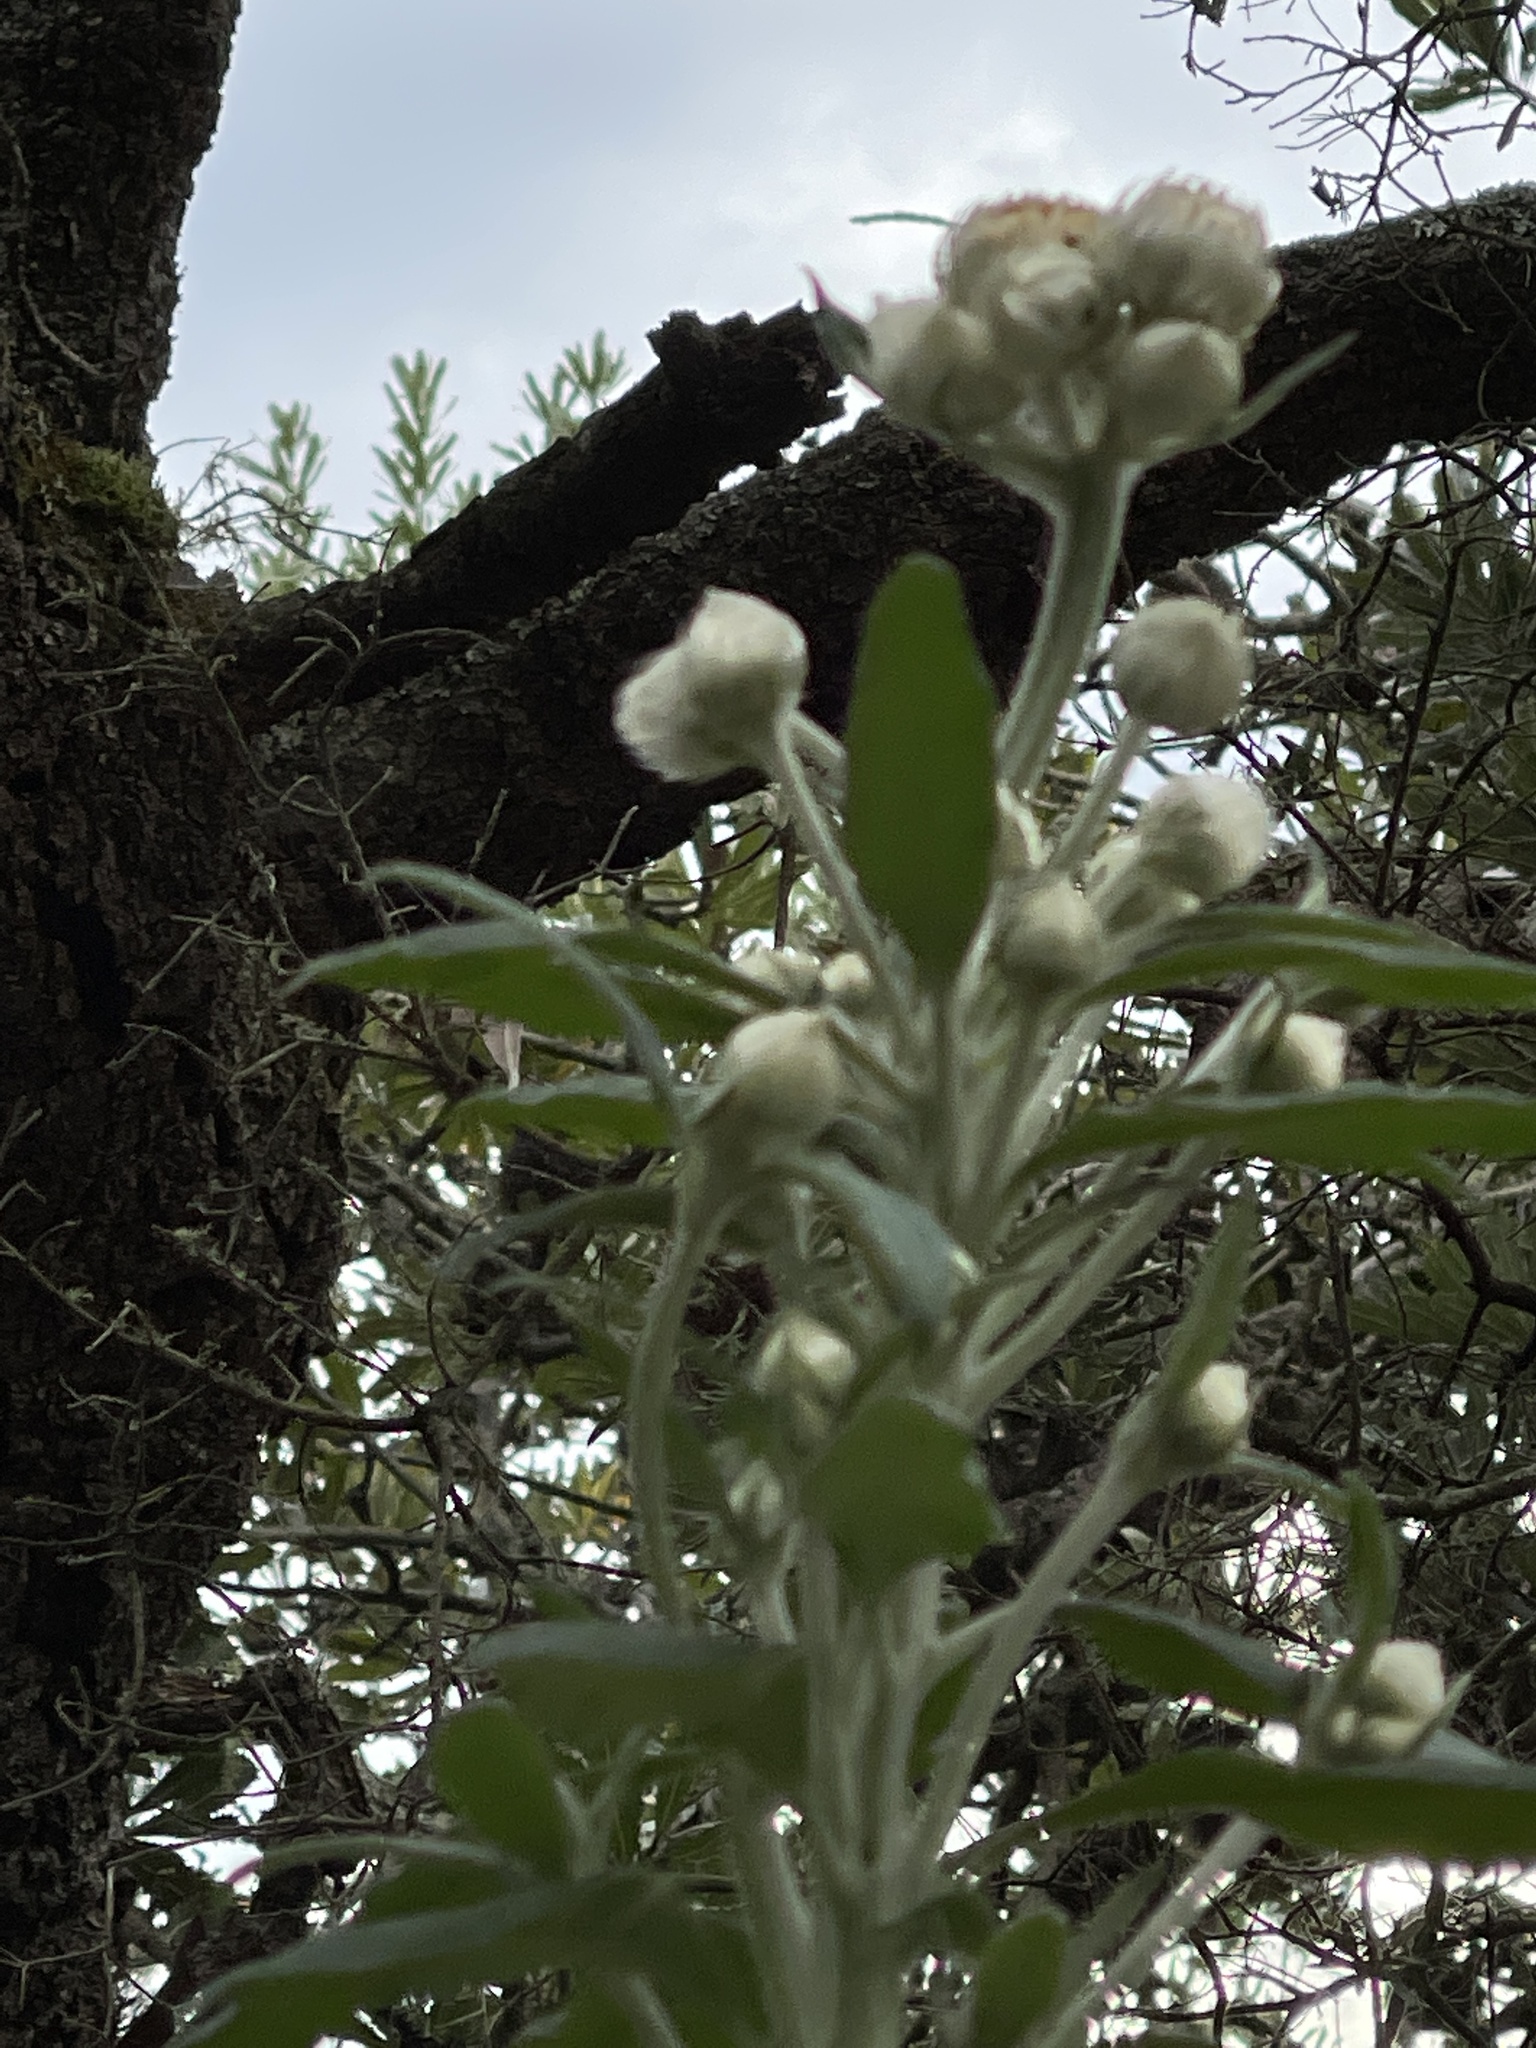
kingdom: Plantae
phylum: Tracheophyta
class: Magnoliopsida
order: Asterales
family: Asteraceae
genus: Leucozoma
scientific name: Leucozoma elatum
